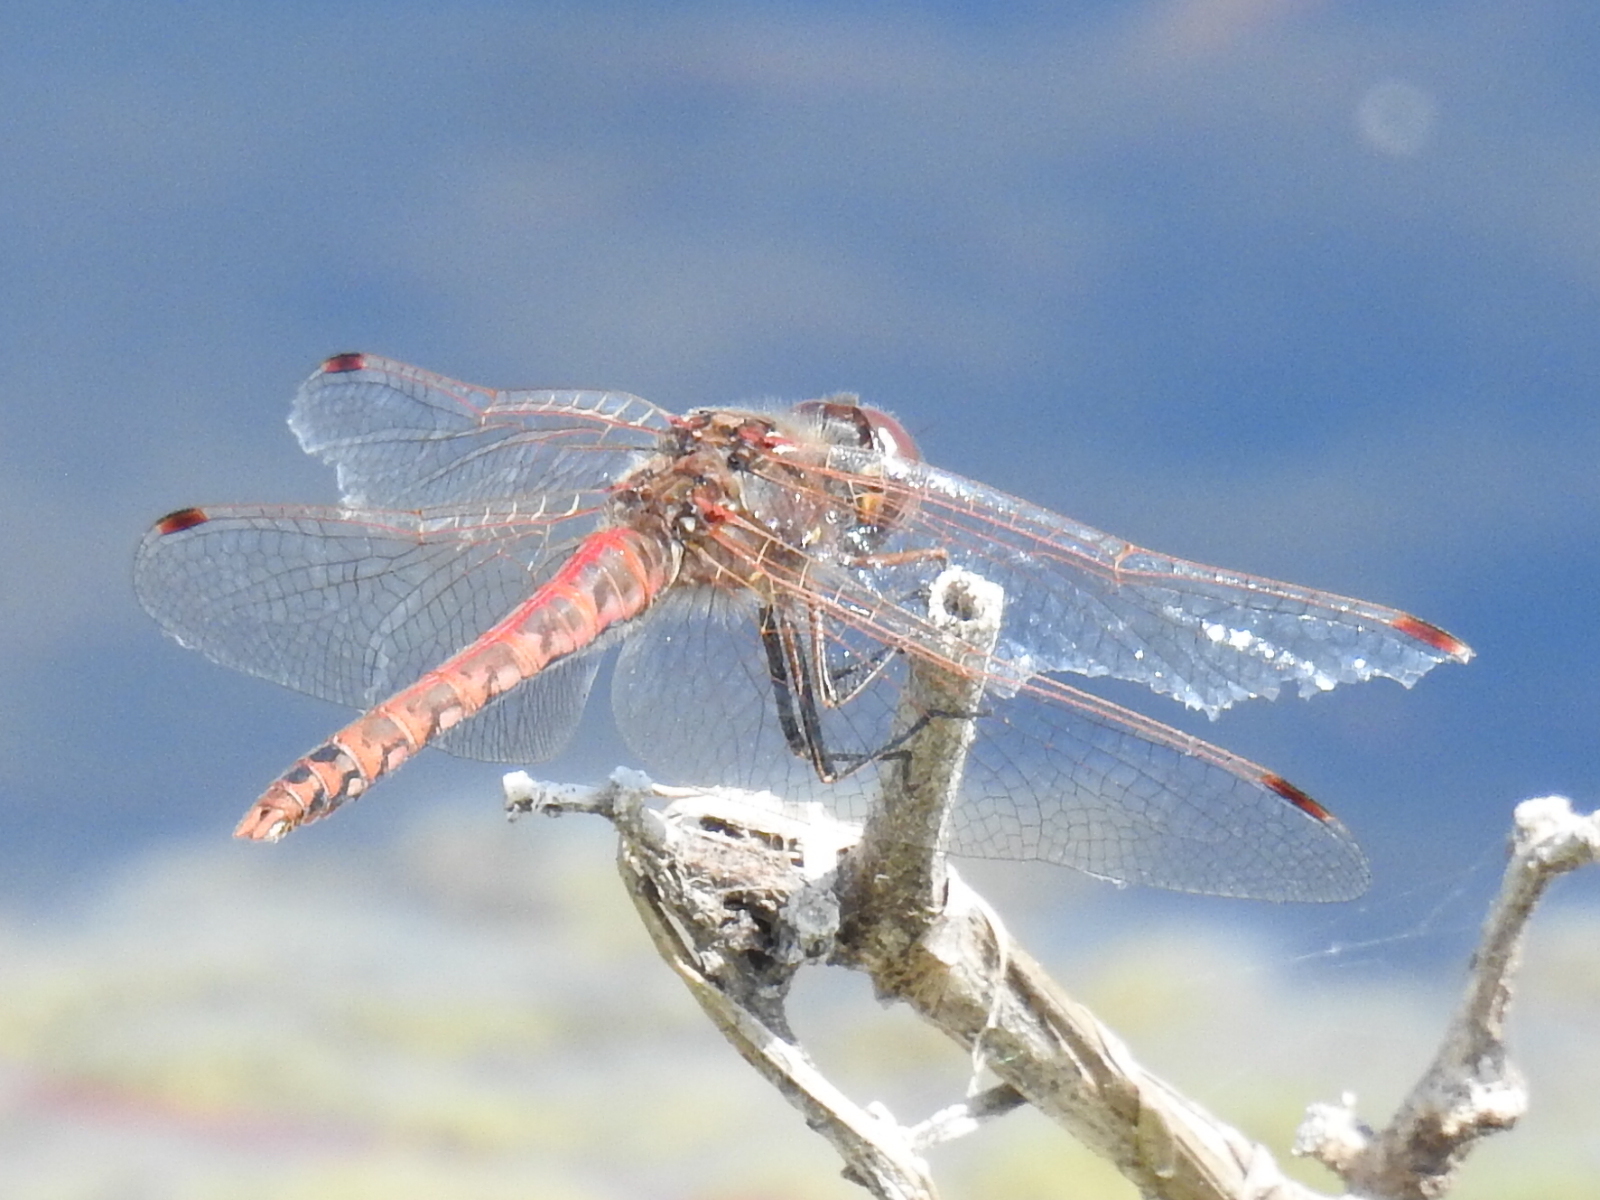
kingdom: Animalia
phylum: Arthropoda
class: Insecta
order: Odonata
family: Libellulidae
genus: Sympetrum
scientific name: Sympetrum corruptum
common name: Variegated meadowhawk
